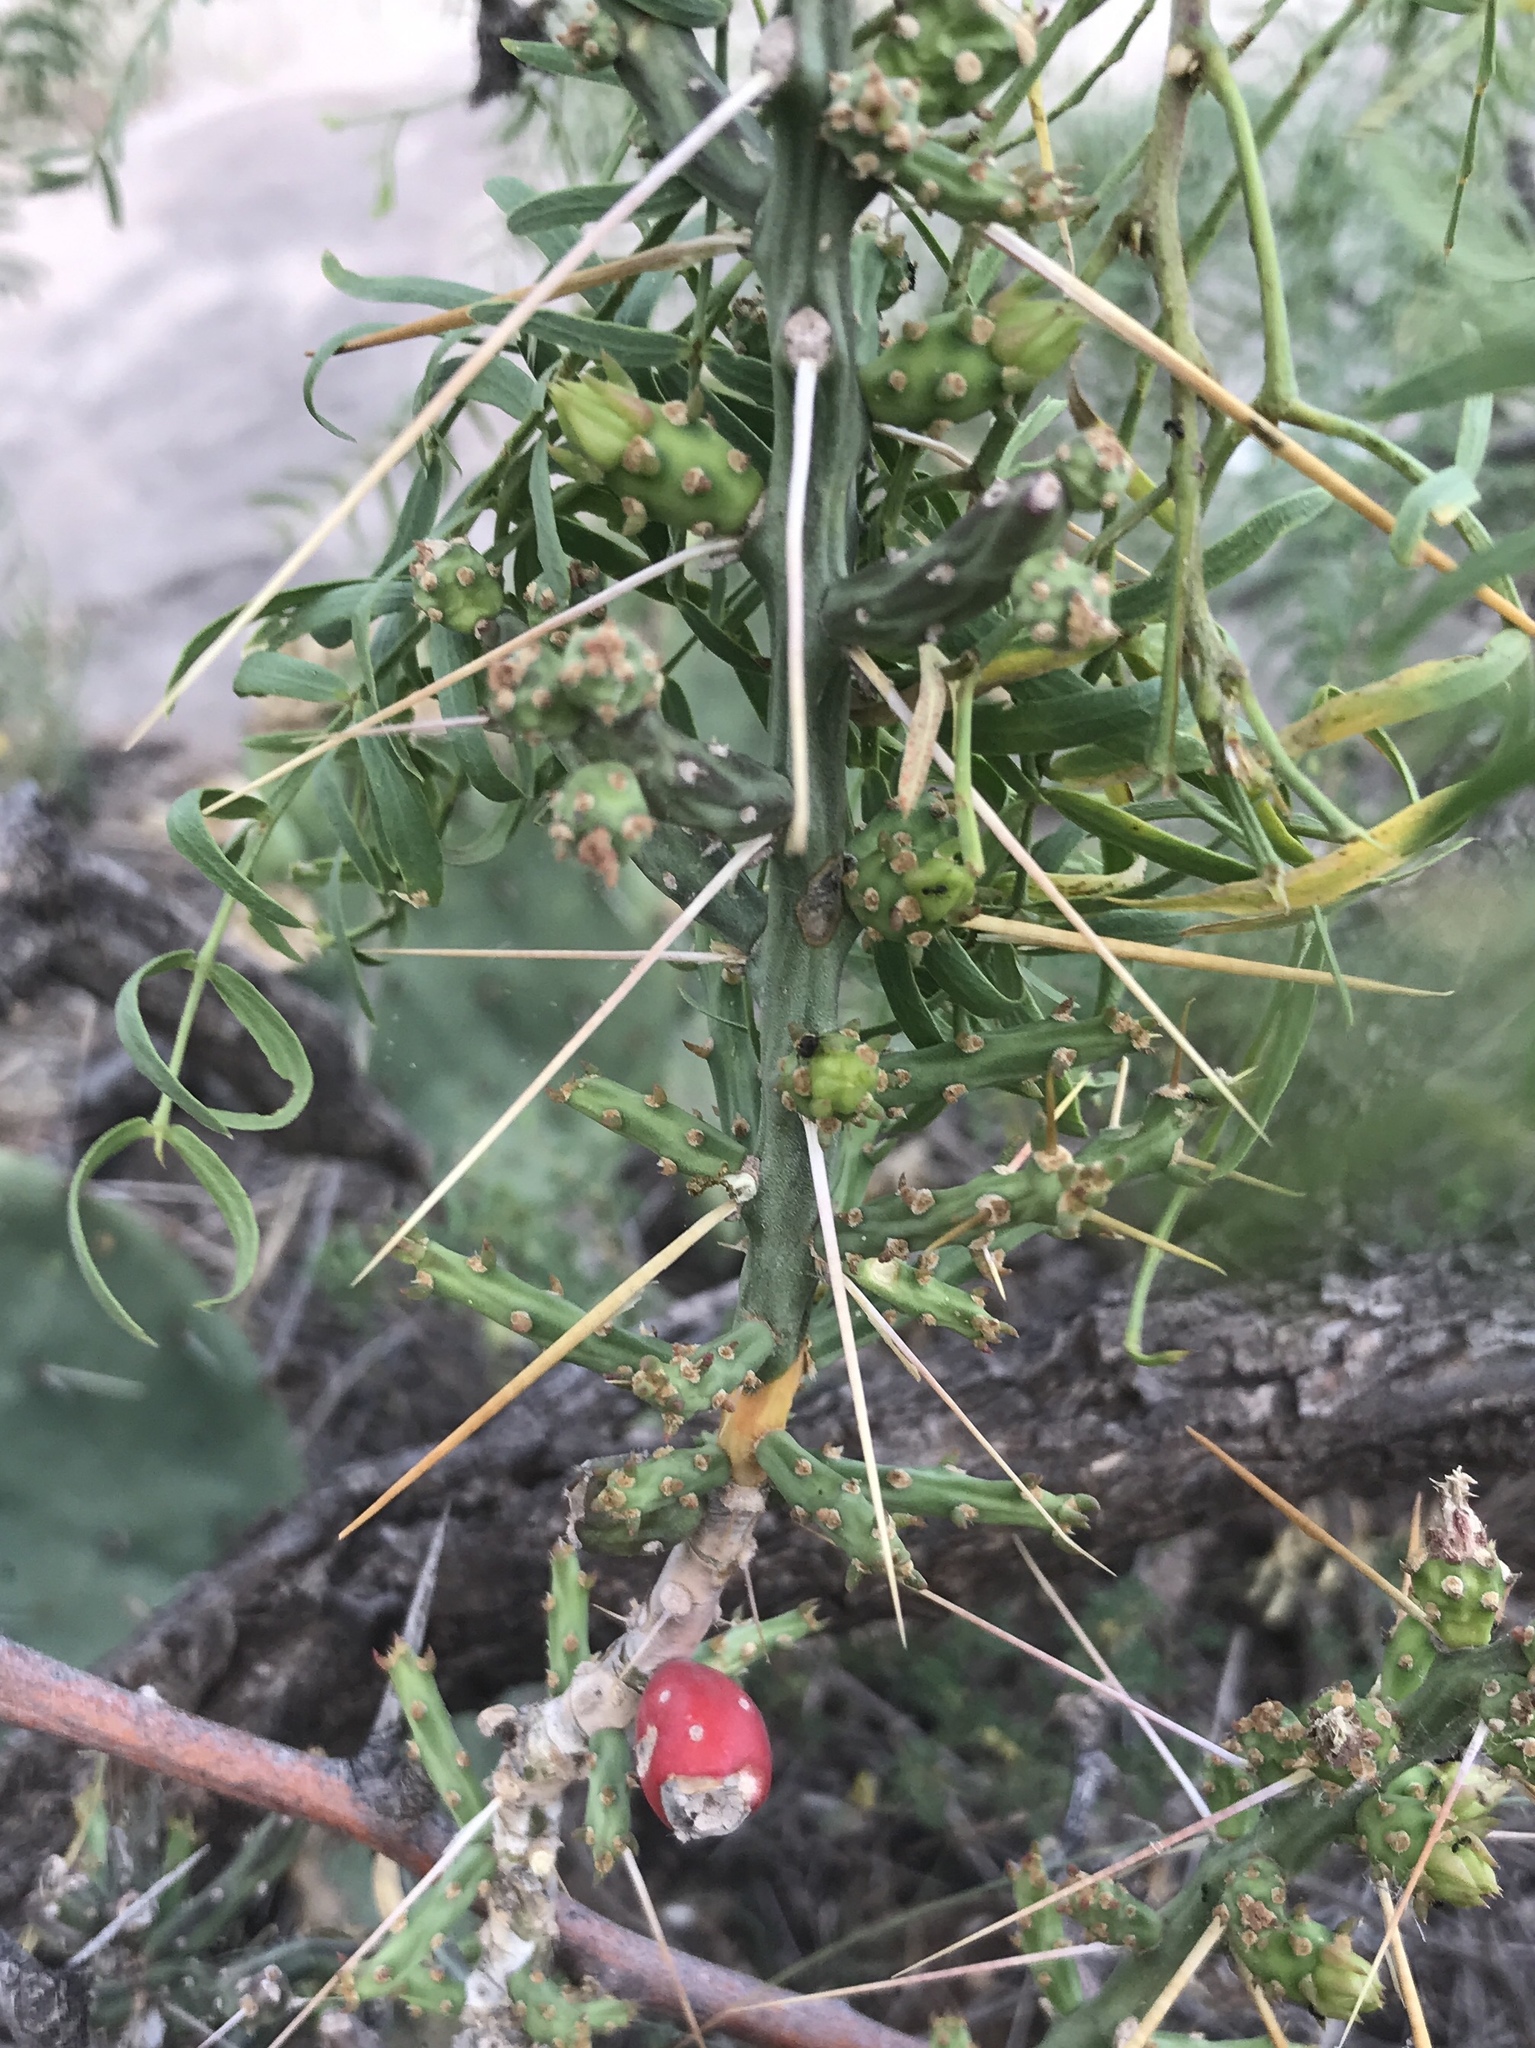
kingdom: Plantae
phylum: Tracheophyta
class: Magnoliopsida
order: Caryophyllales
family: Cactaceae
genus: Cylindropuntia
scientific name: Cylindropuntia leptocaulis
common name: Christmas cactus
